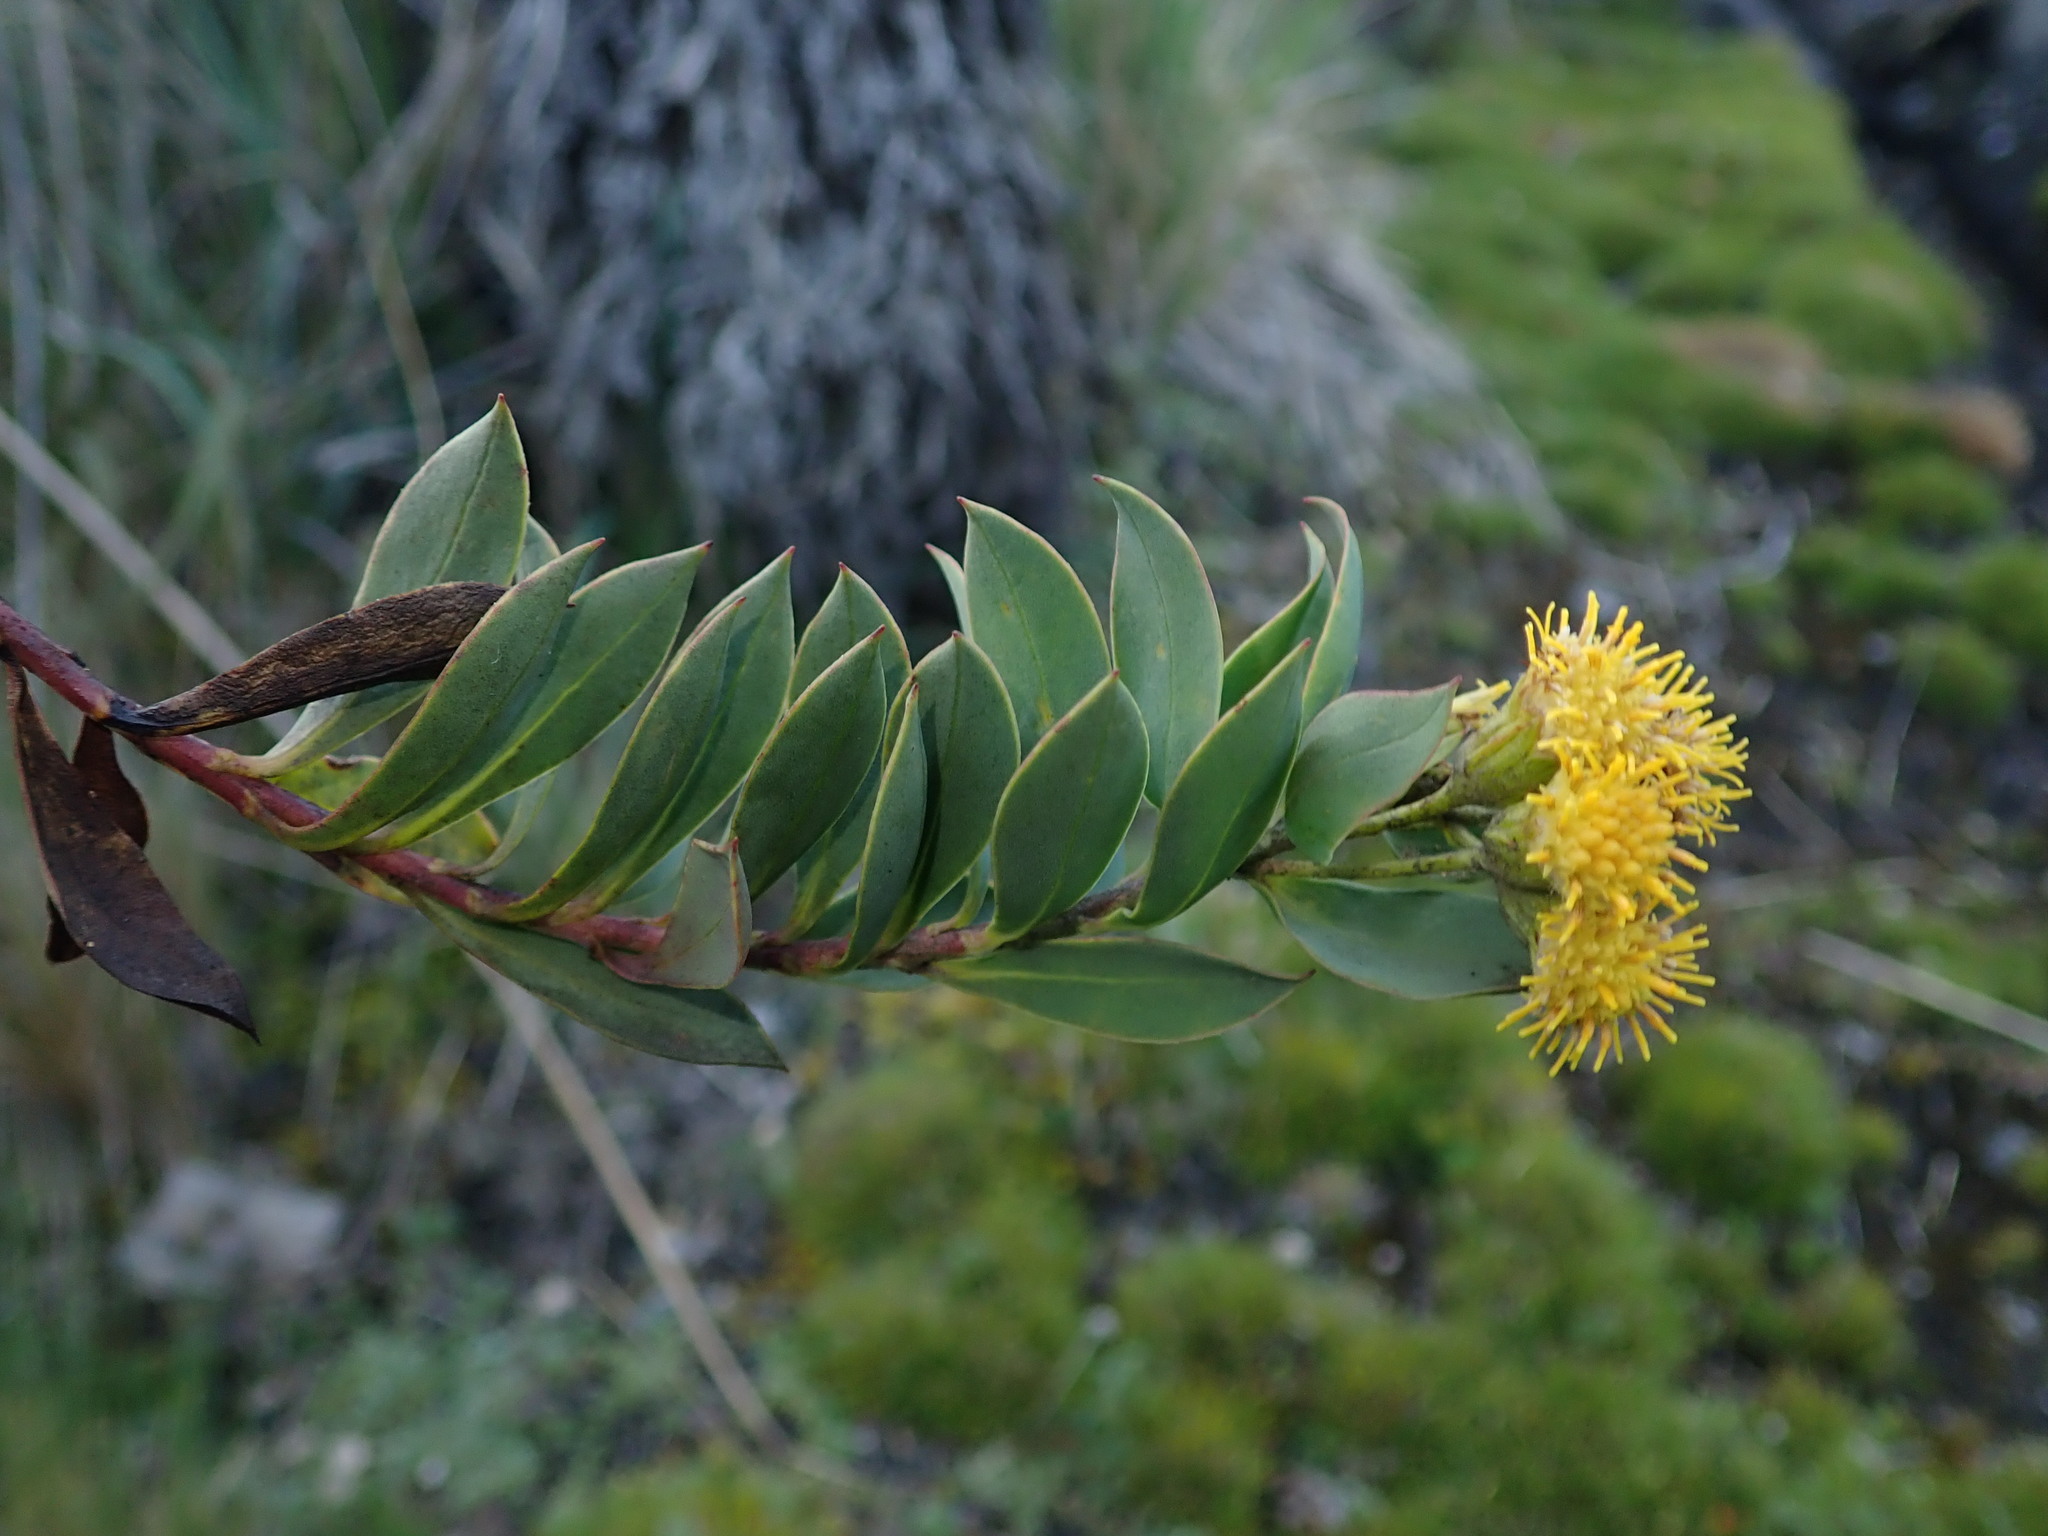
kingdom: Plantae
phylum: Tracheophyta
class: Magnoliopsida
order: Asterales
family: Asteraceae
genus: Monticalia
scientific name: Monticalia vaccinioides
